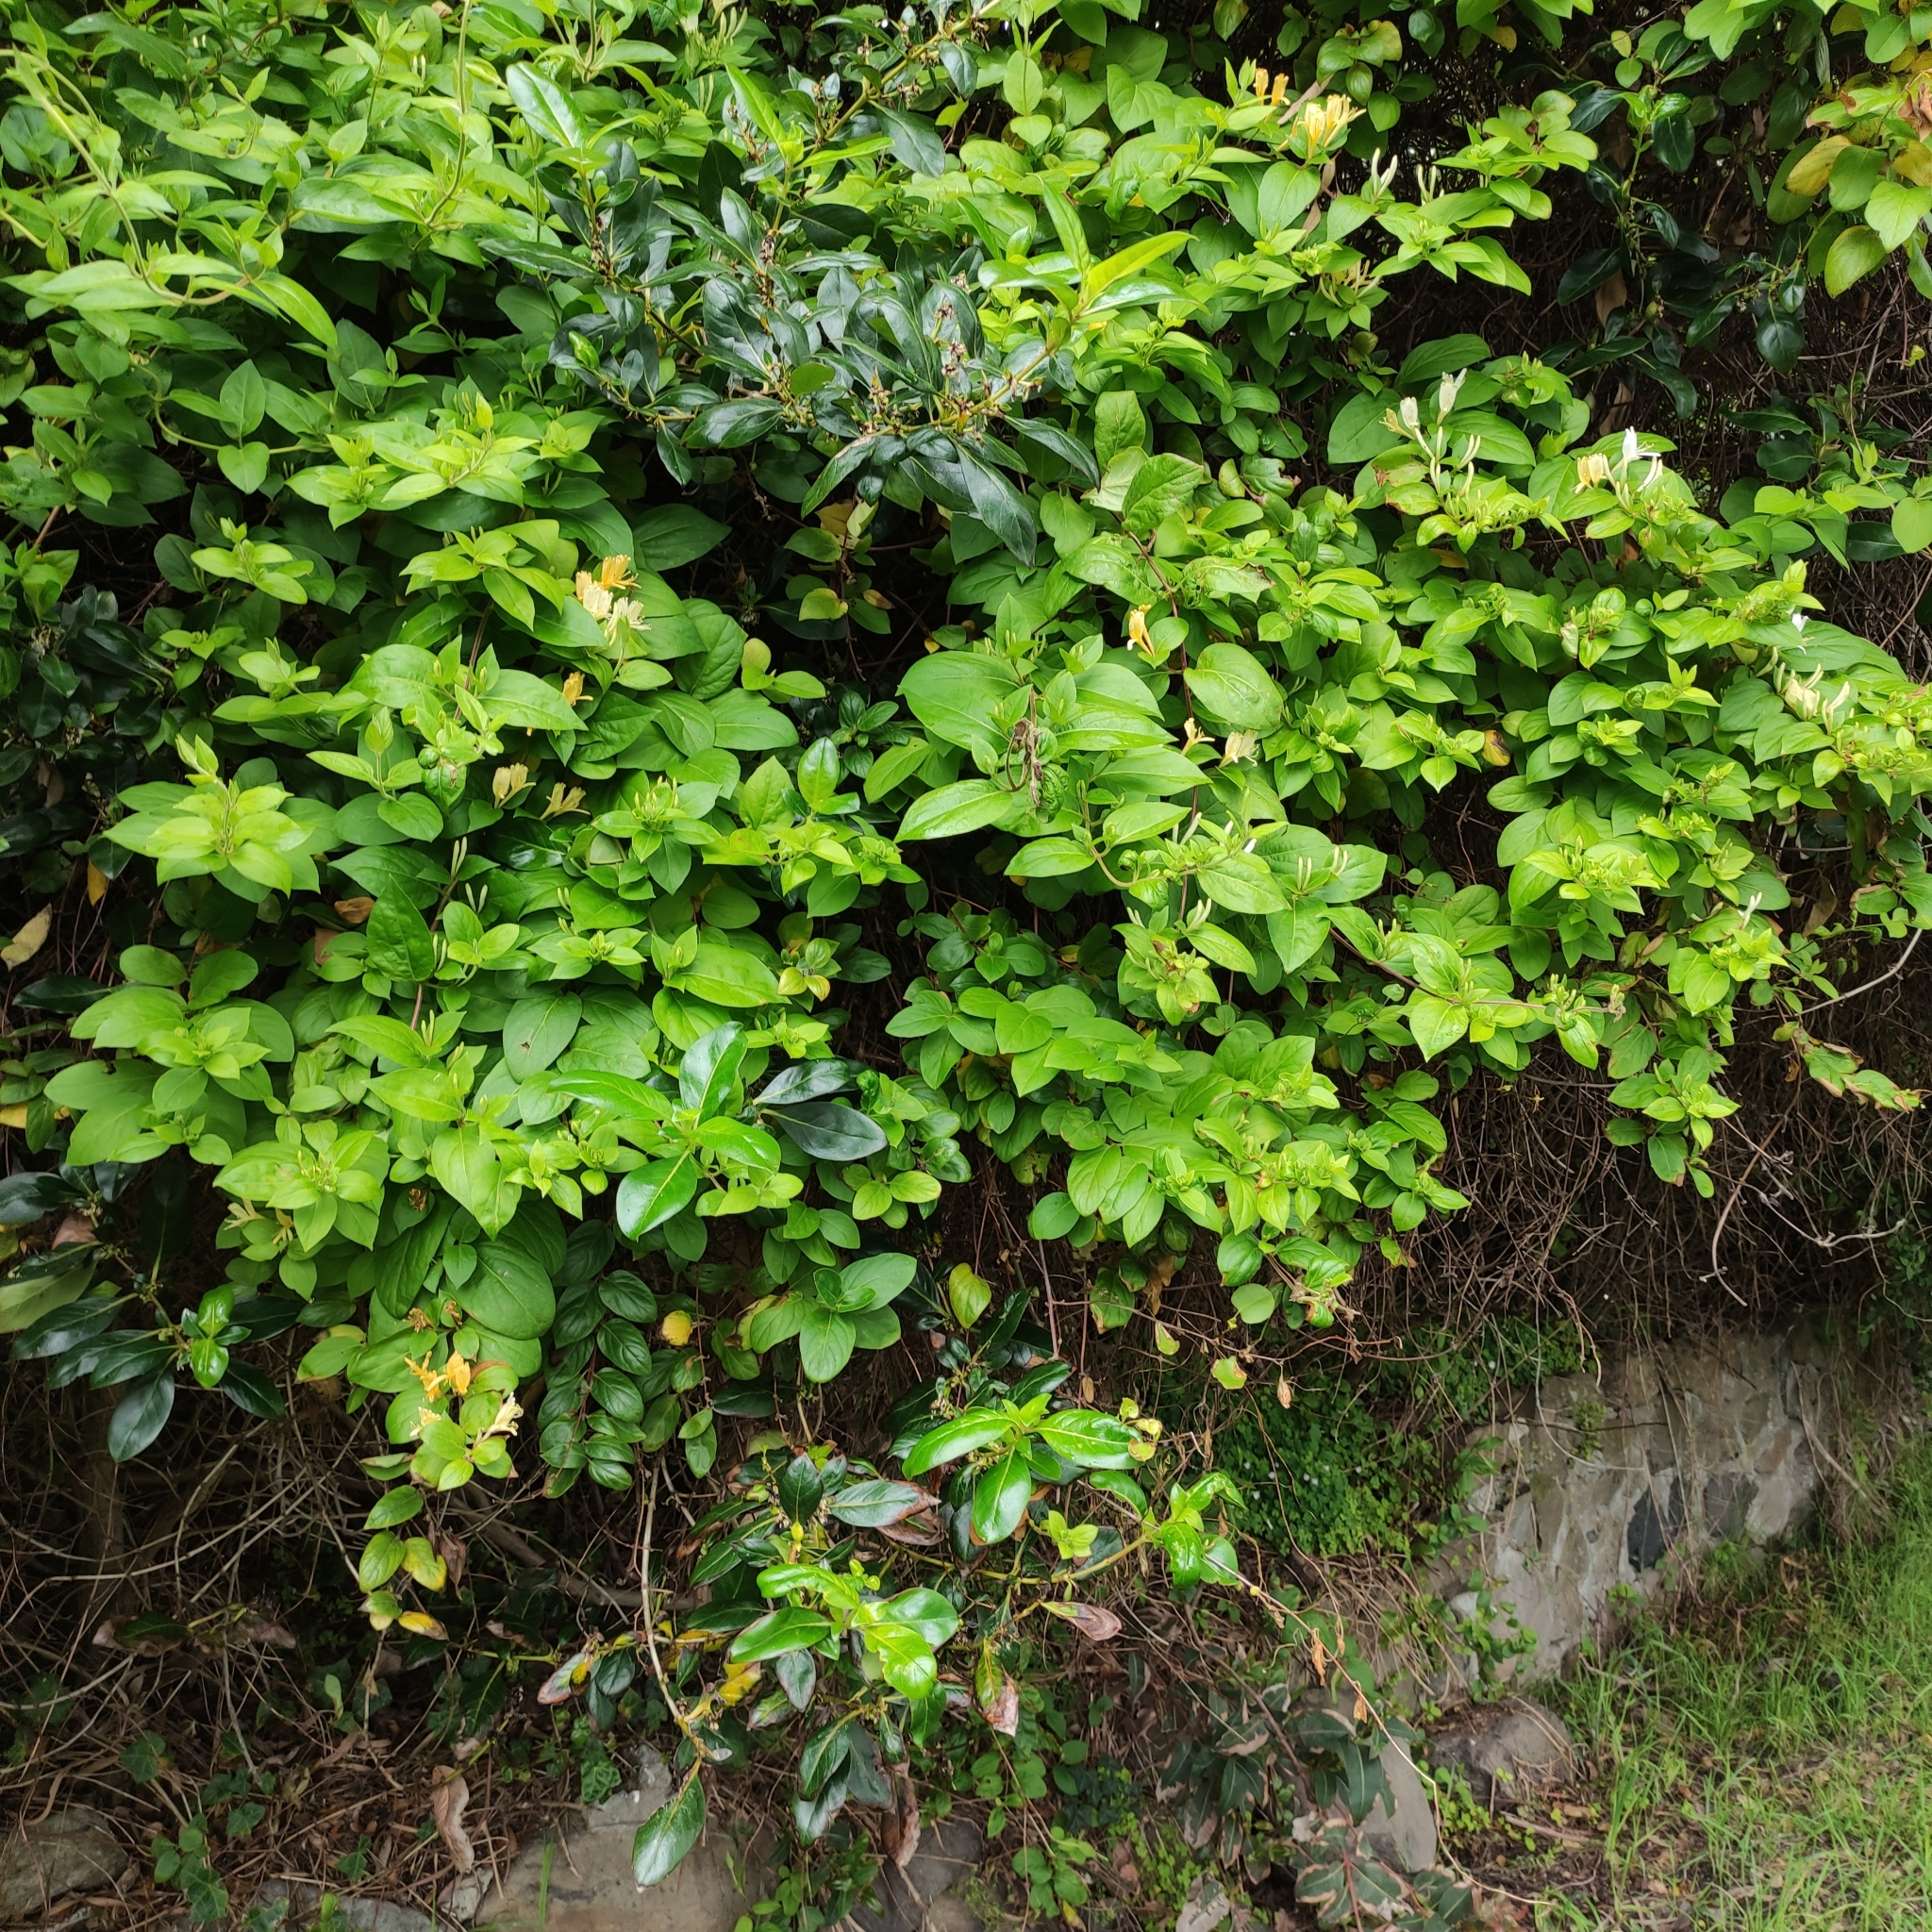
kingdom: Plantae
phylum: Tracheophyta
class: Magnoliopsida
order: Dipsacales
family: Caprifoliaceae
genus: Lonicera
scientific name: Lonicera japonica
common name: Japanese honeysuckle
